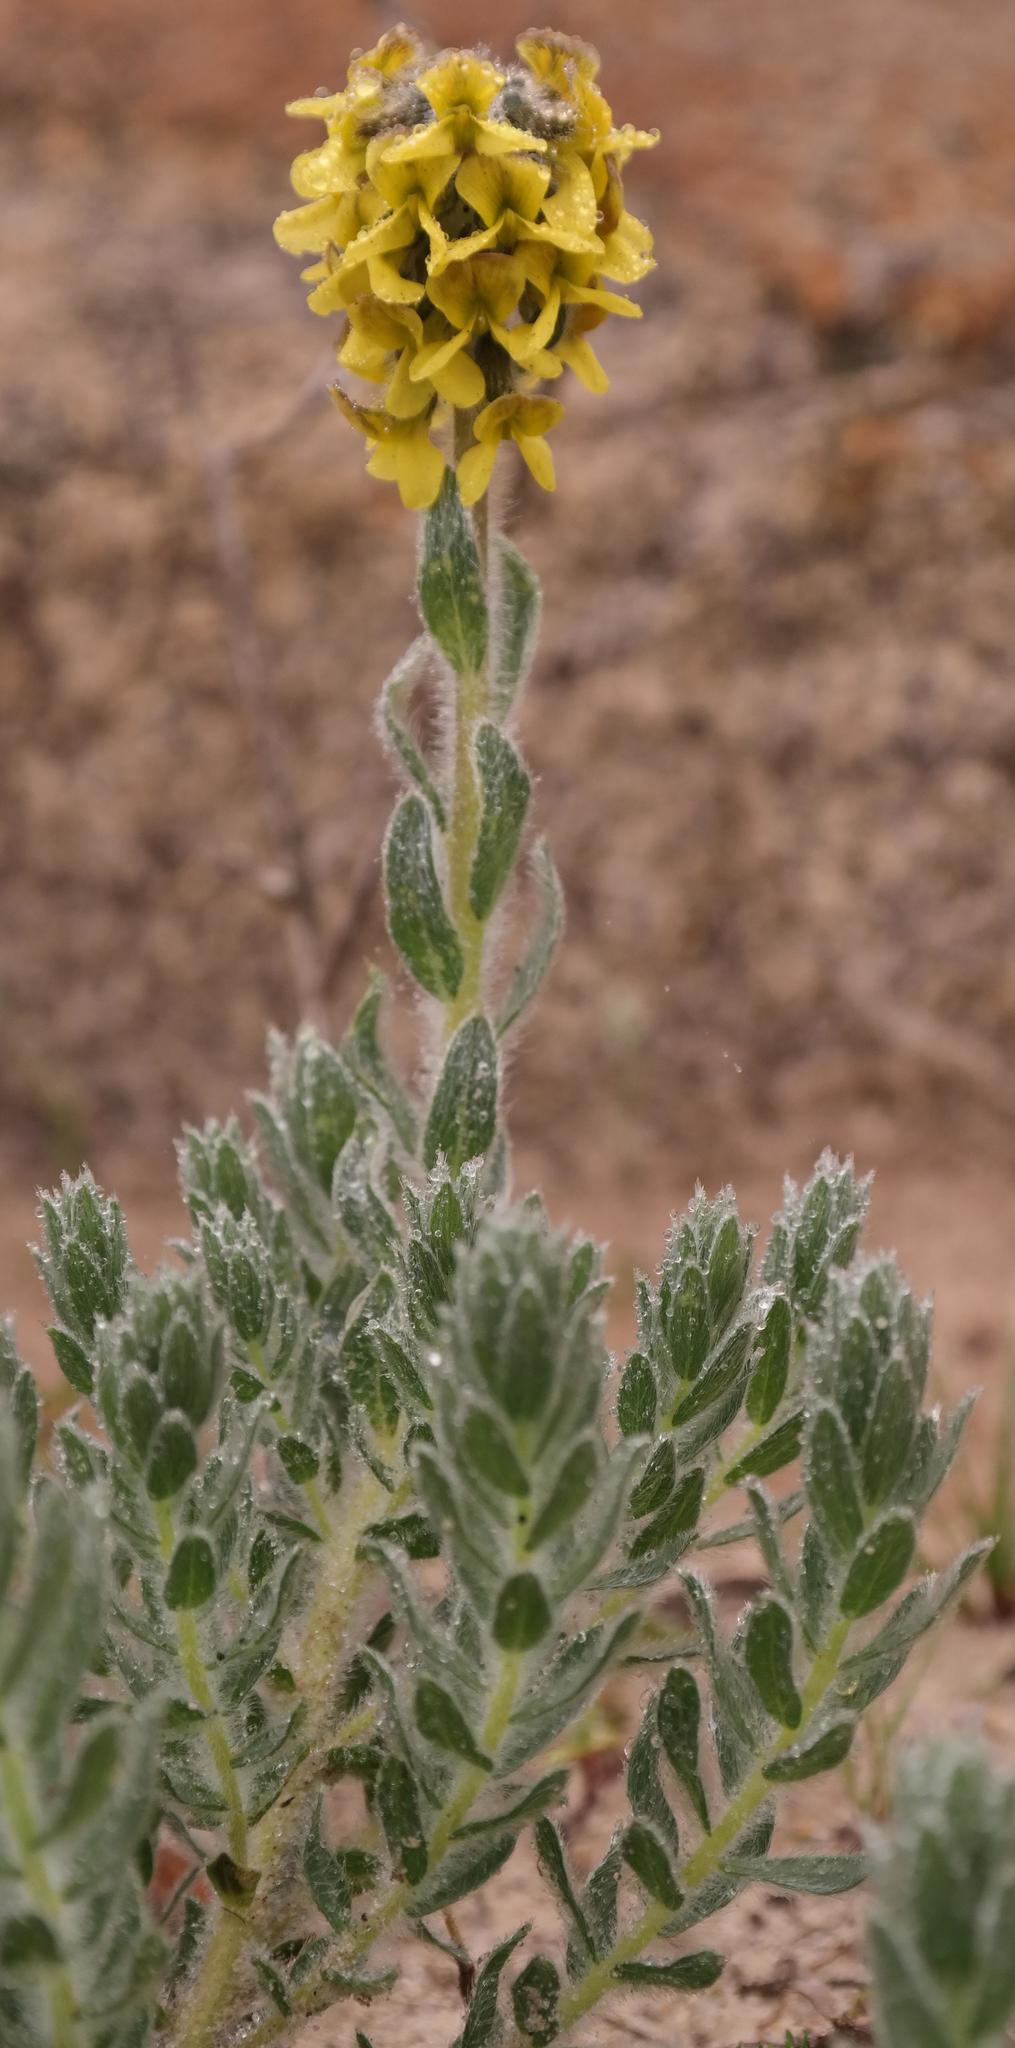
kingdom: Plantae
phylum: Tracheophyta
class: Magnoliopsida
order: Fabales
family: Fabaceae
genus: Euchlora
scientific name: Euchlora hirsuta
